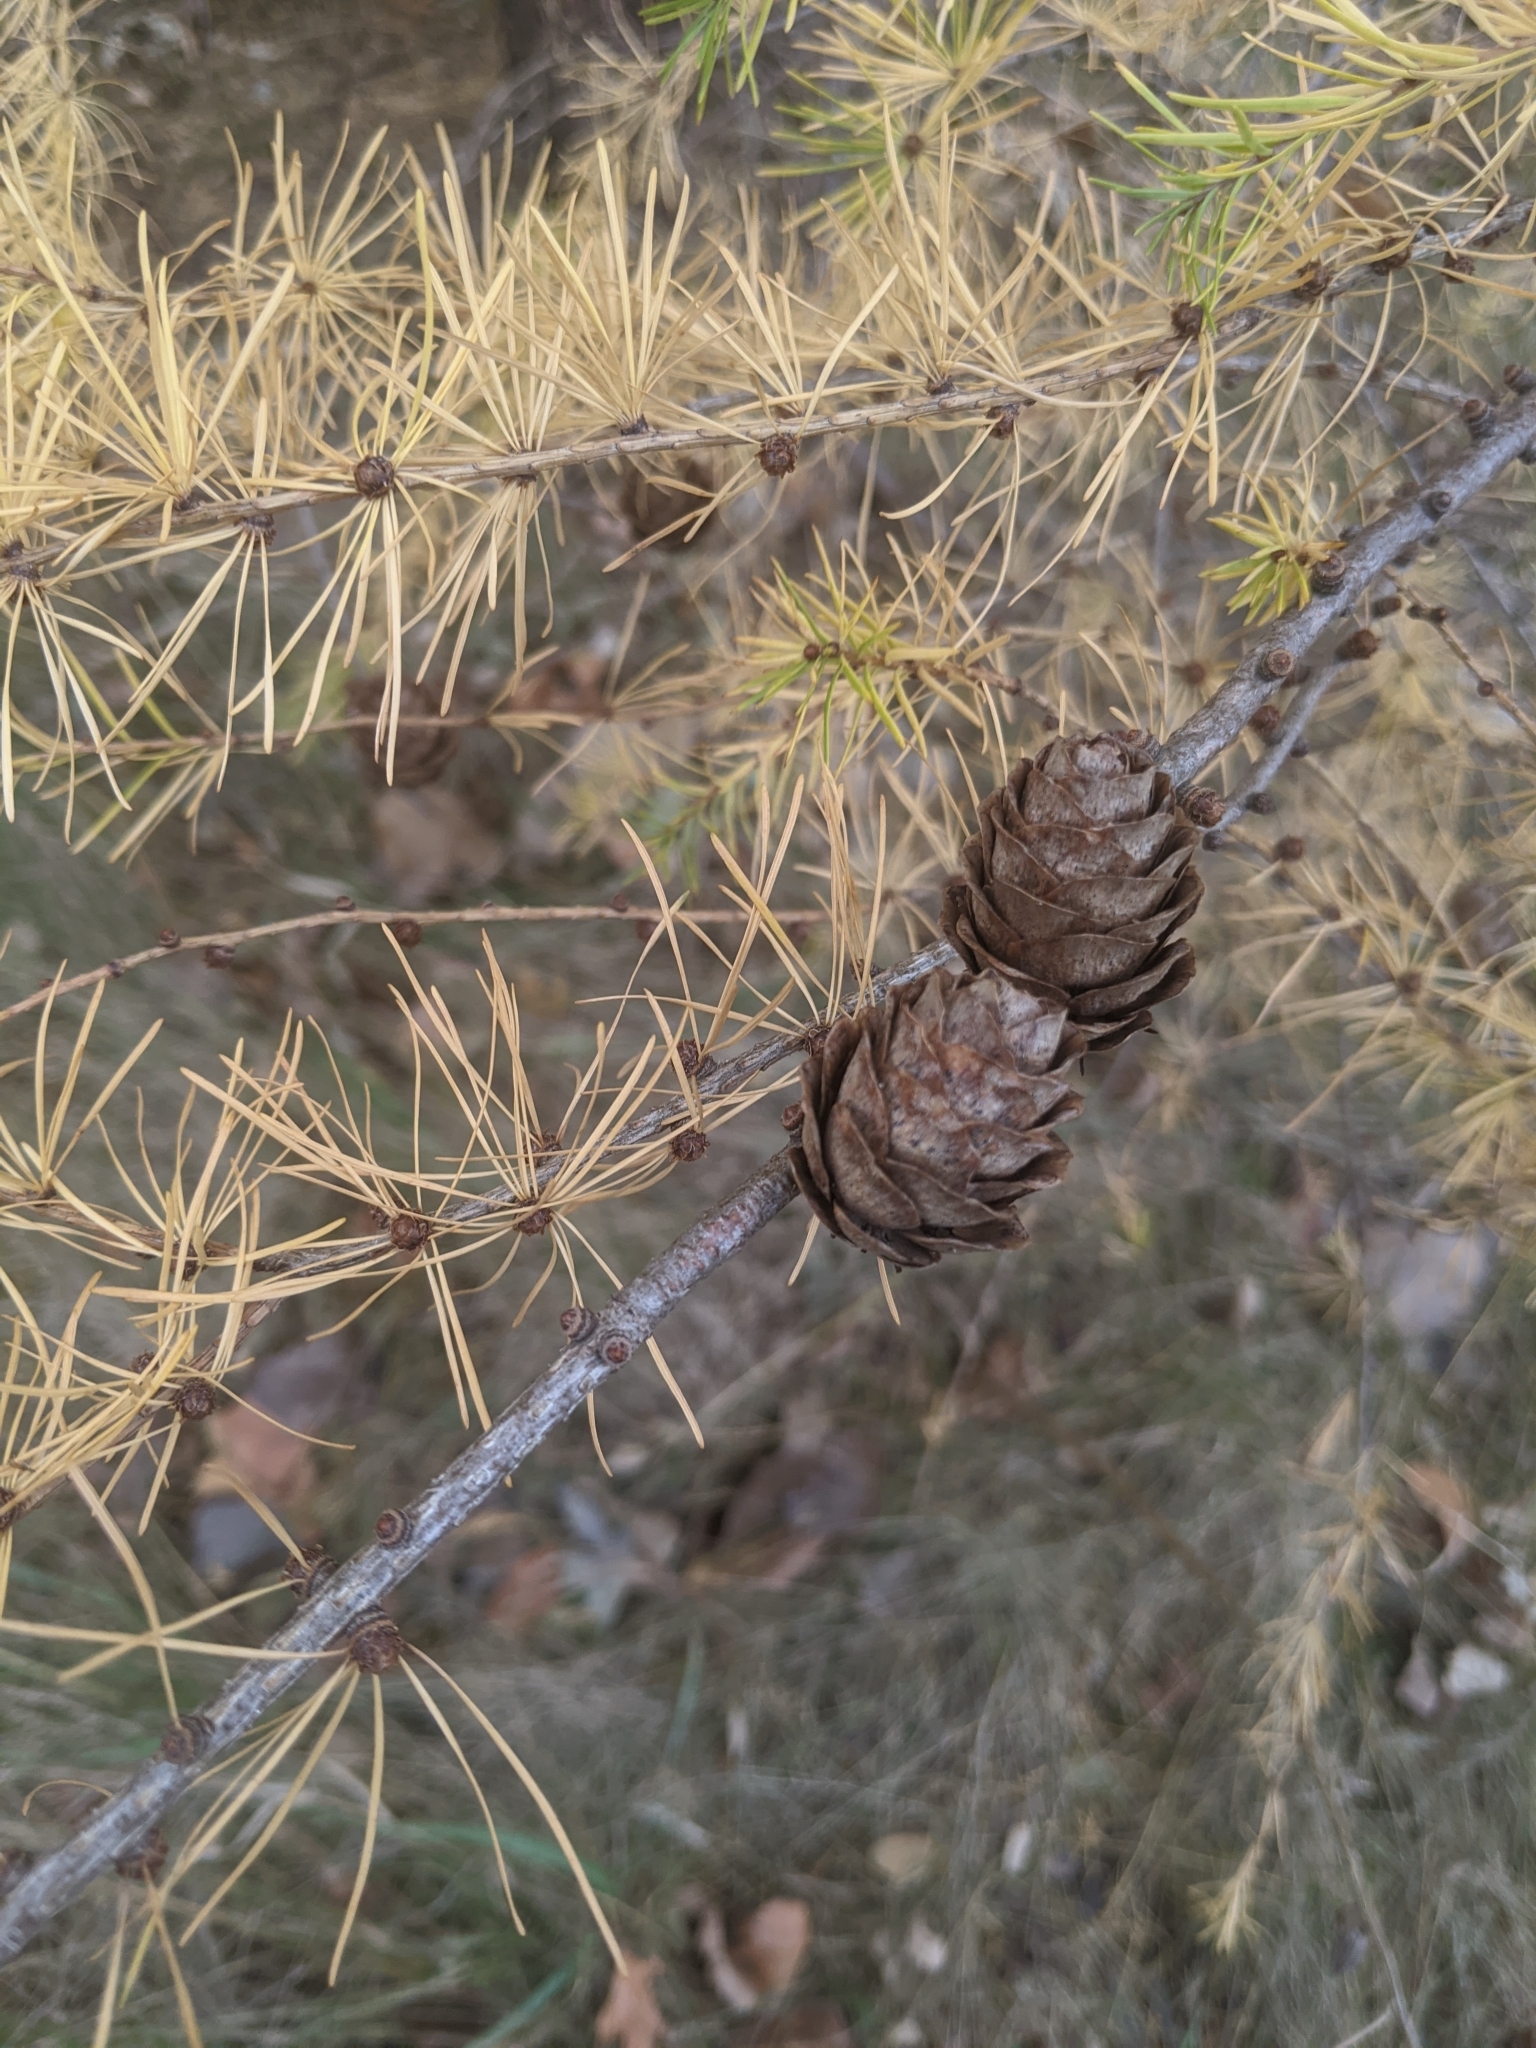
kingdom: Plantae
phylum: Tracheophyta
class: Pinopsida
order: Pinales
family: Pinaceae
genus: Larix
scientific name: Larix decidua
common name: European larch
